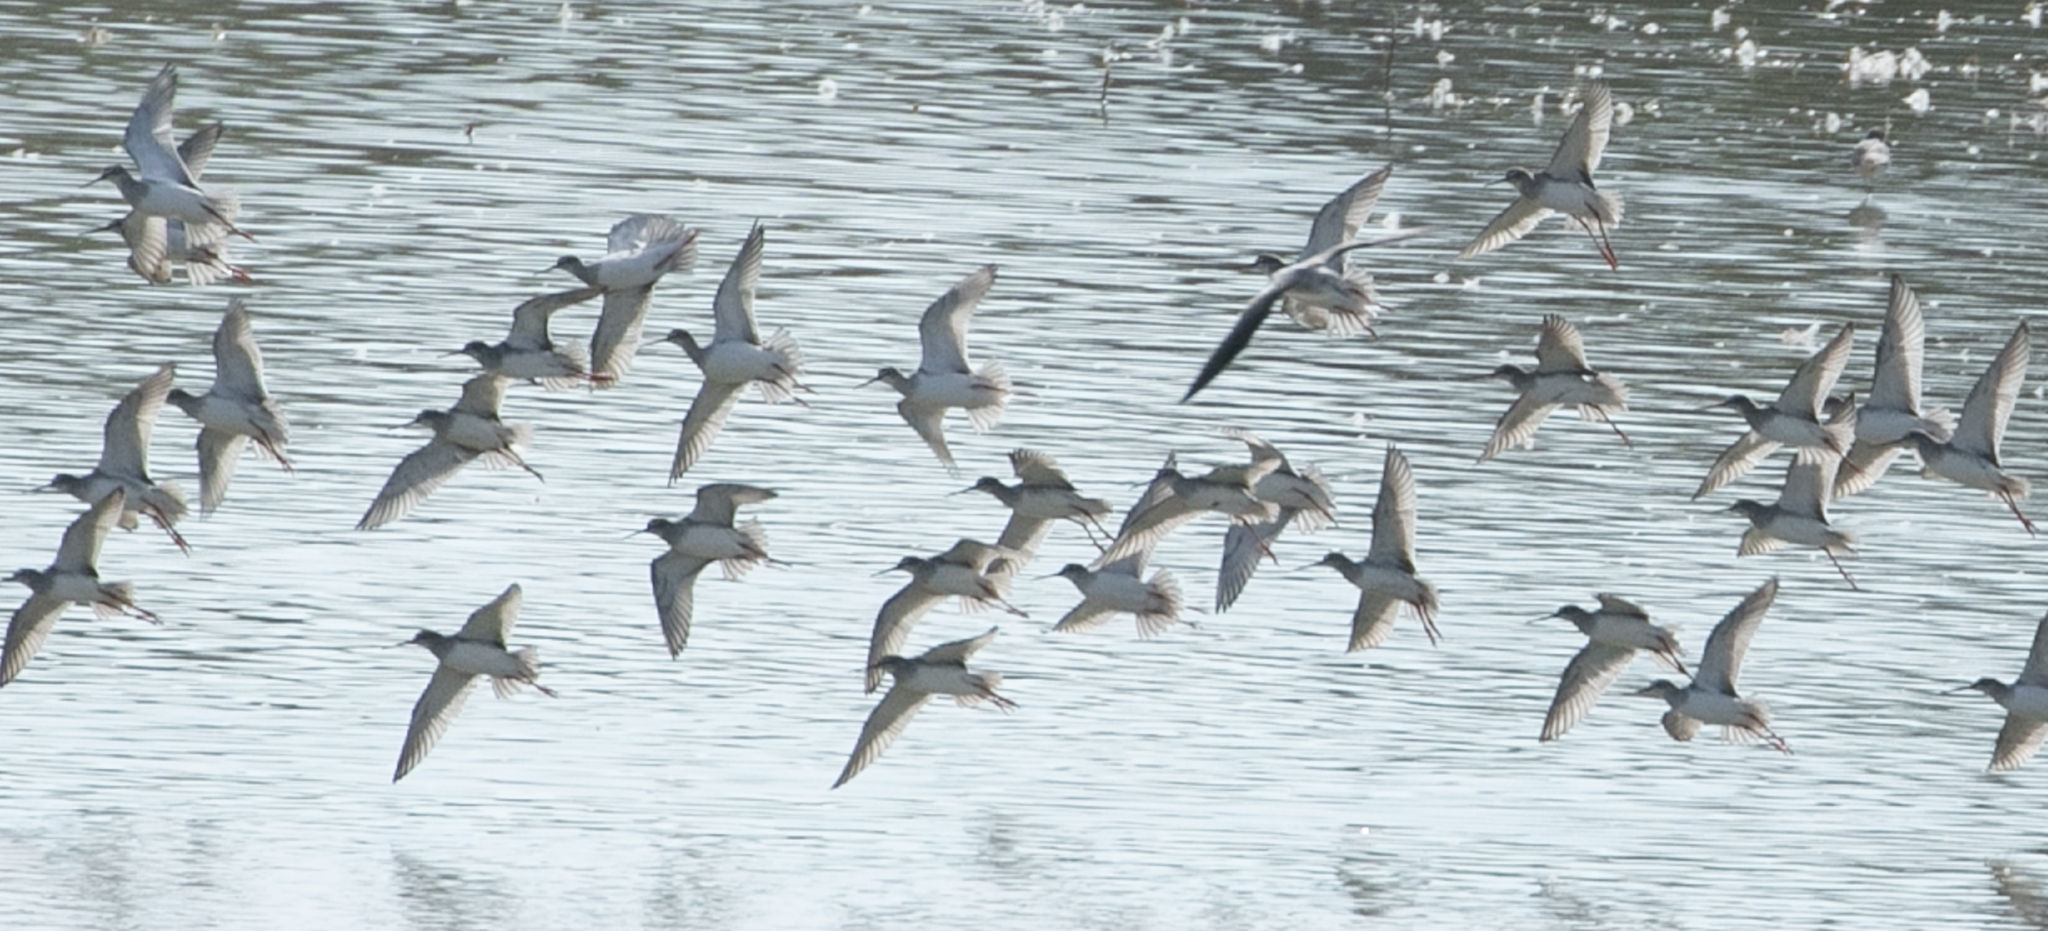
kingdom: Animalia
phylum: Chordata
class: Aves
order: Charadriiformes
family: Scolopacidae
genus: Tringa
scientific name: Tringa erythropus
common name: Spotted redshank
